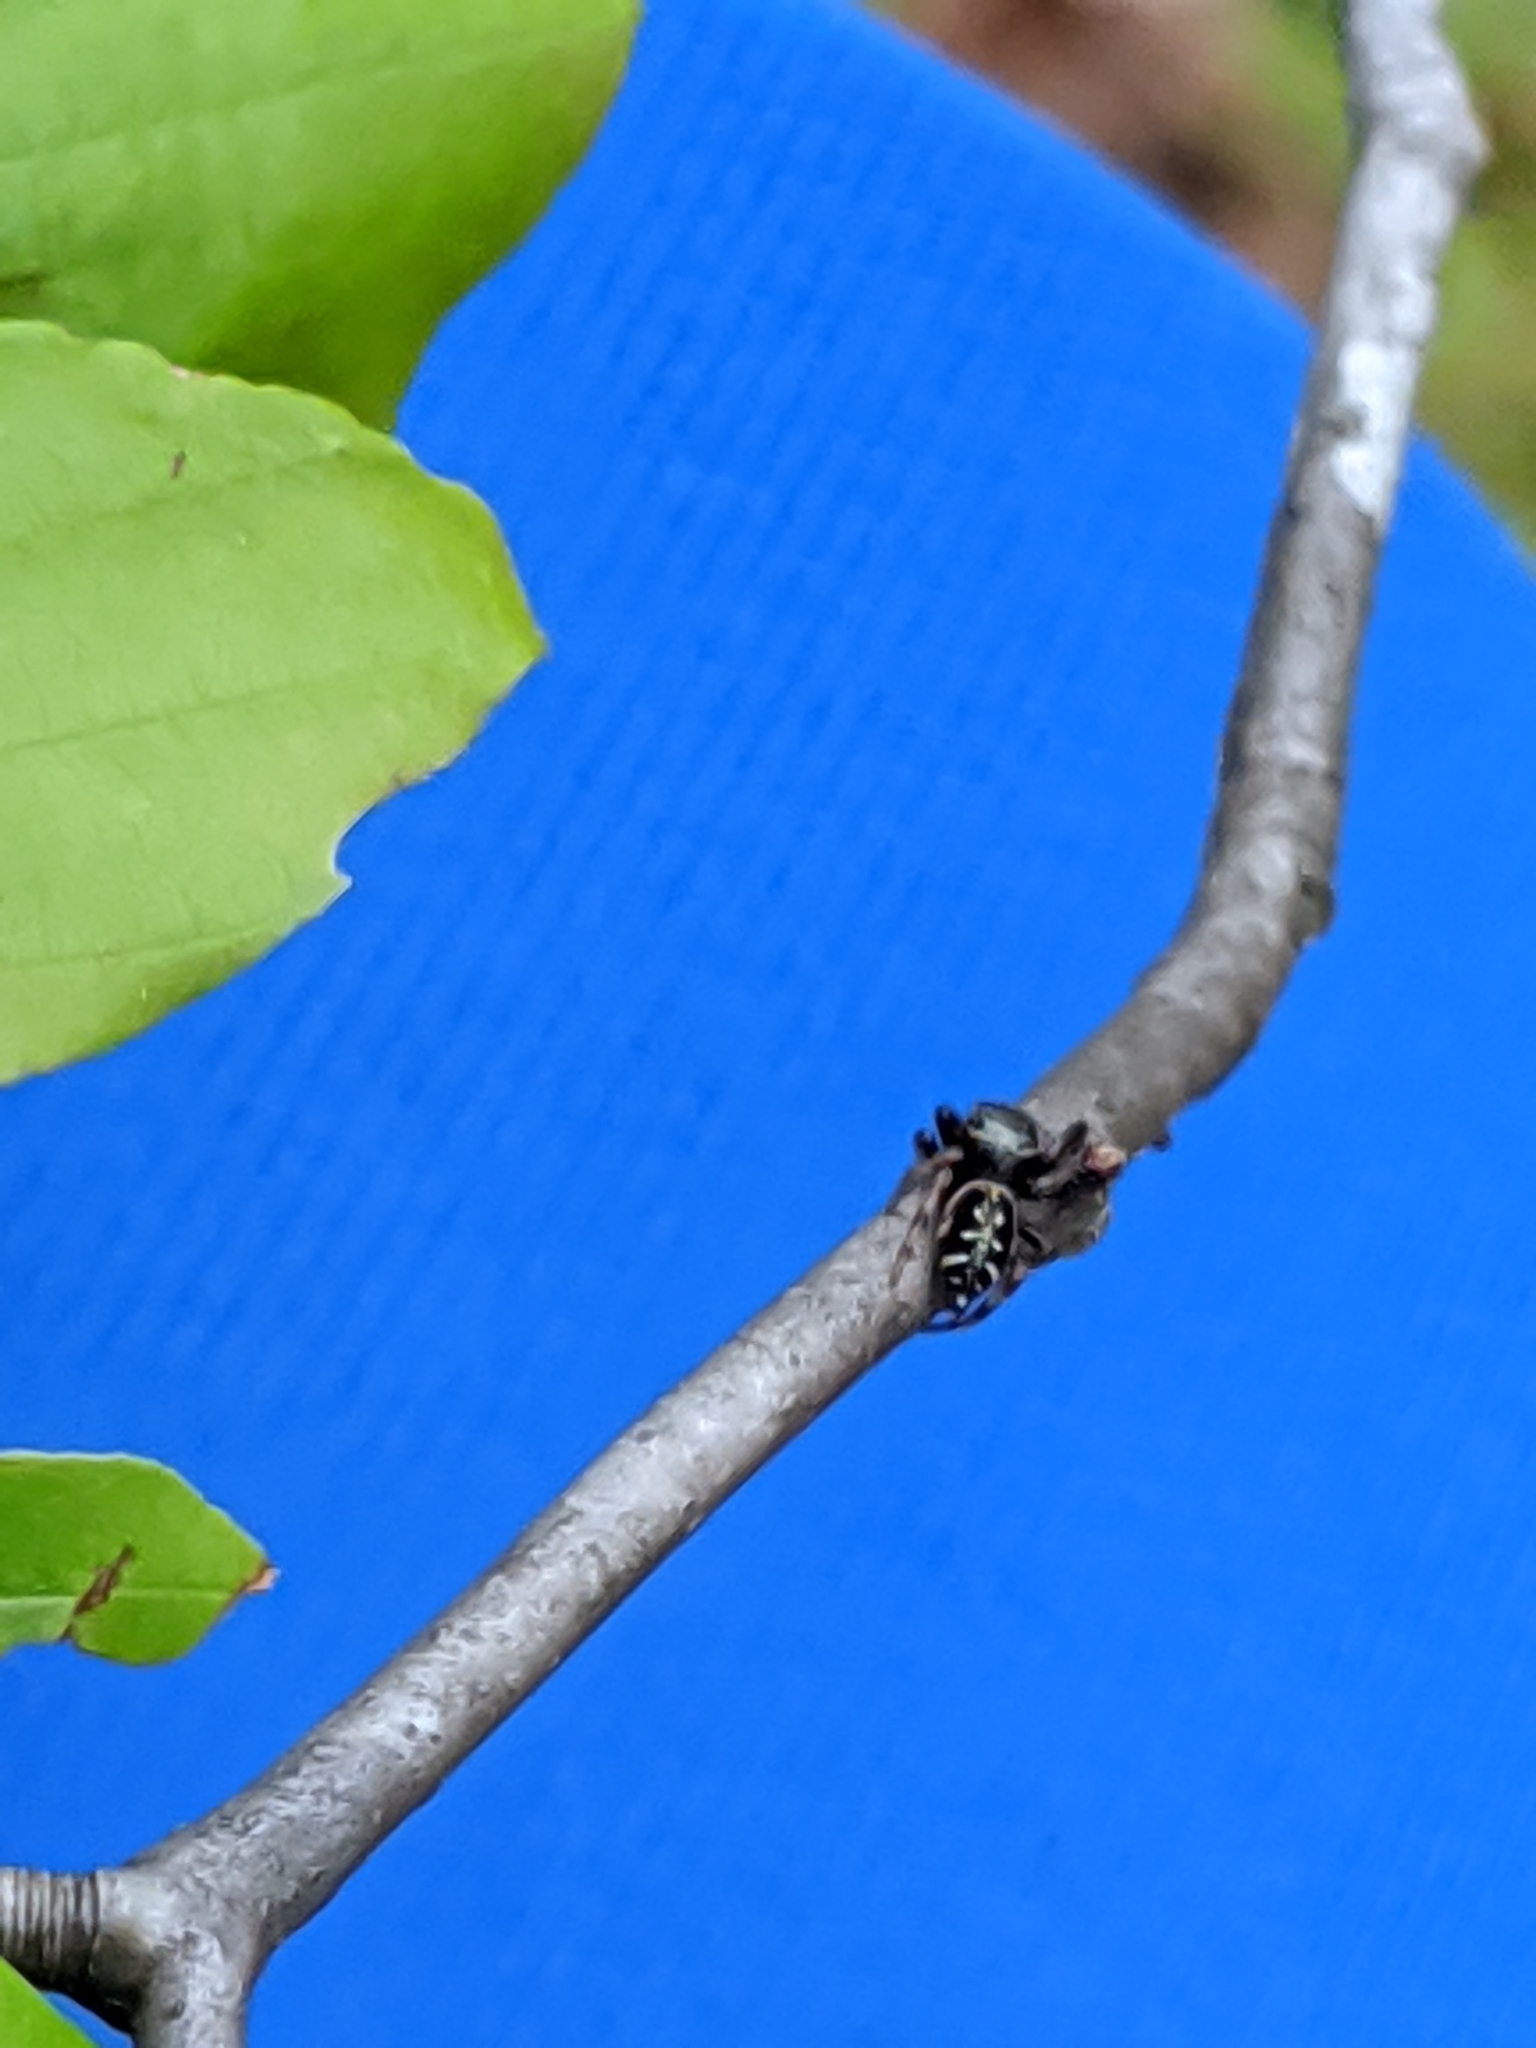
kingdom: Animalia
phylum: Arthropoda
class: Arachnida
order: Araneae
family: Salticidae
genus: Paraphidippus
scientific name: Paraphidippus aurantius
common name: Jumping spiders
